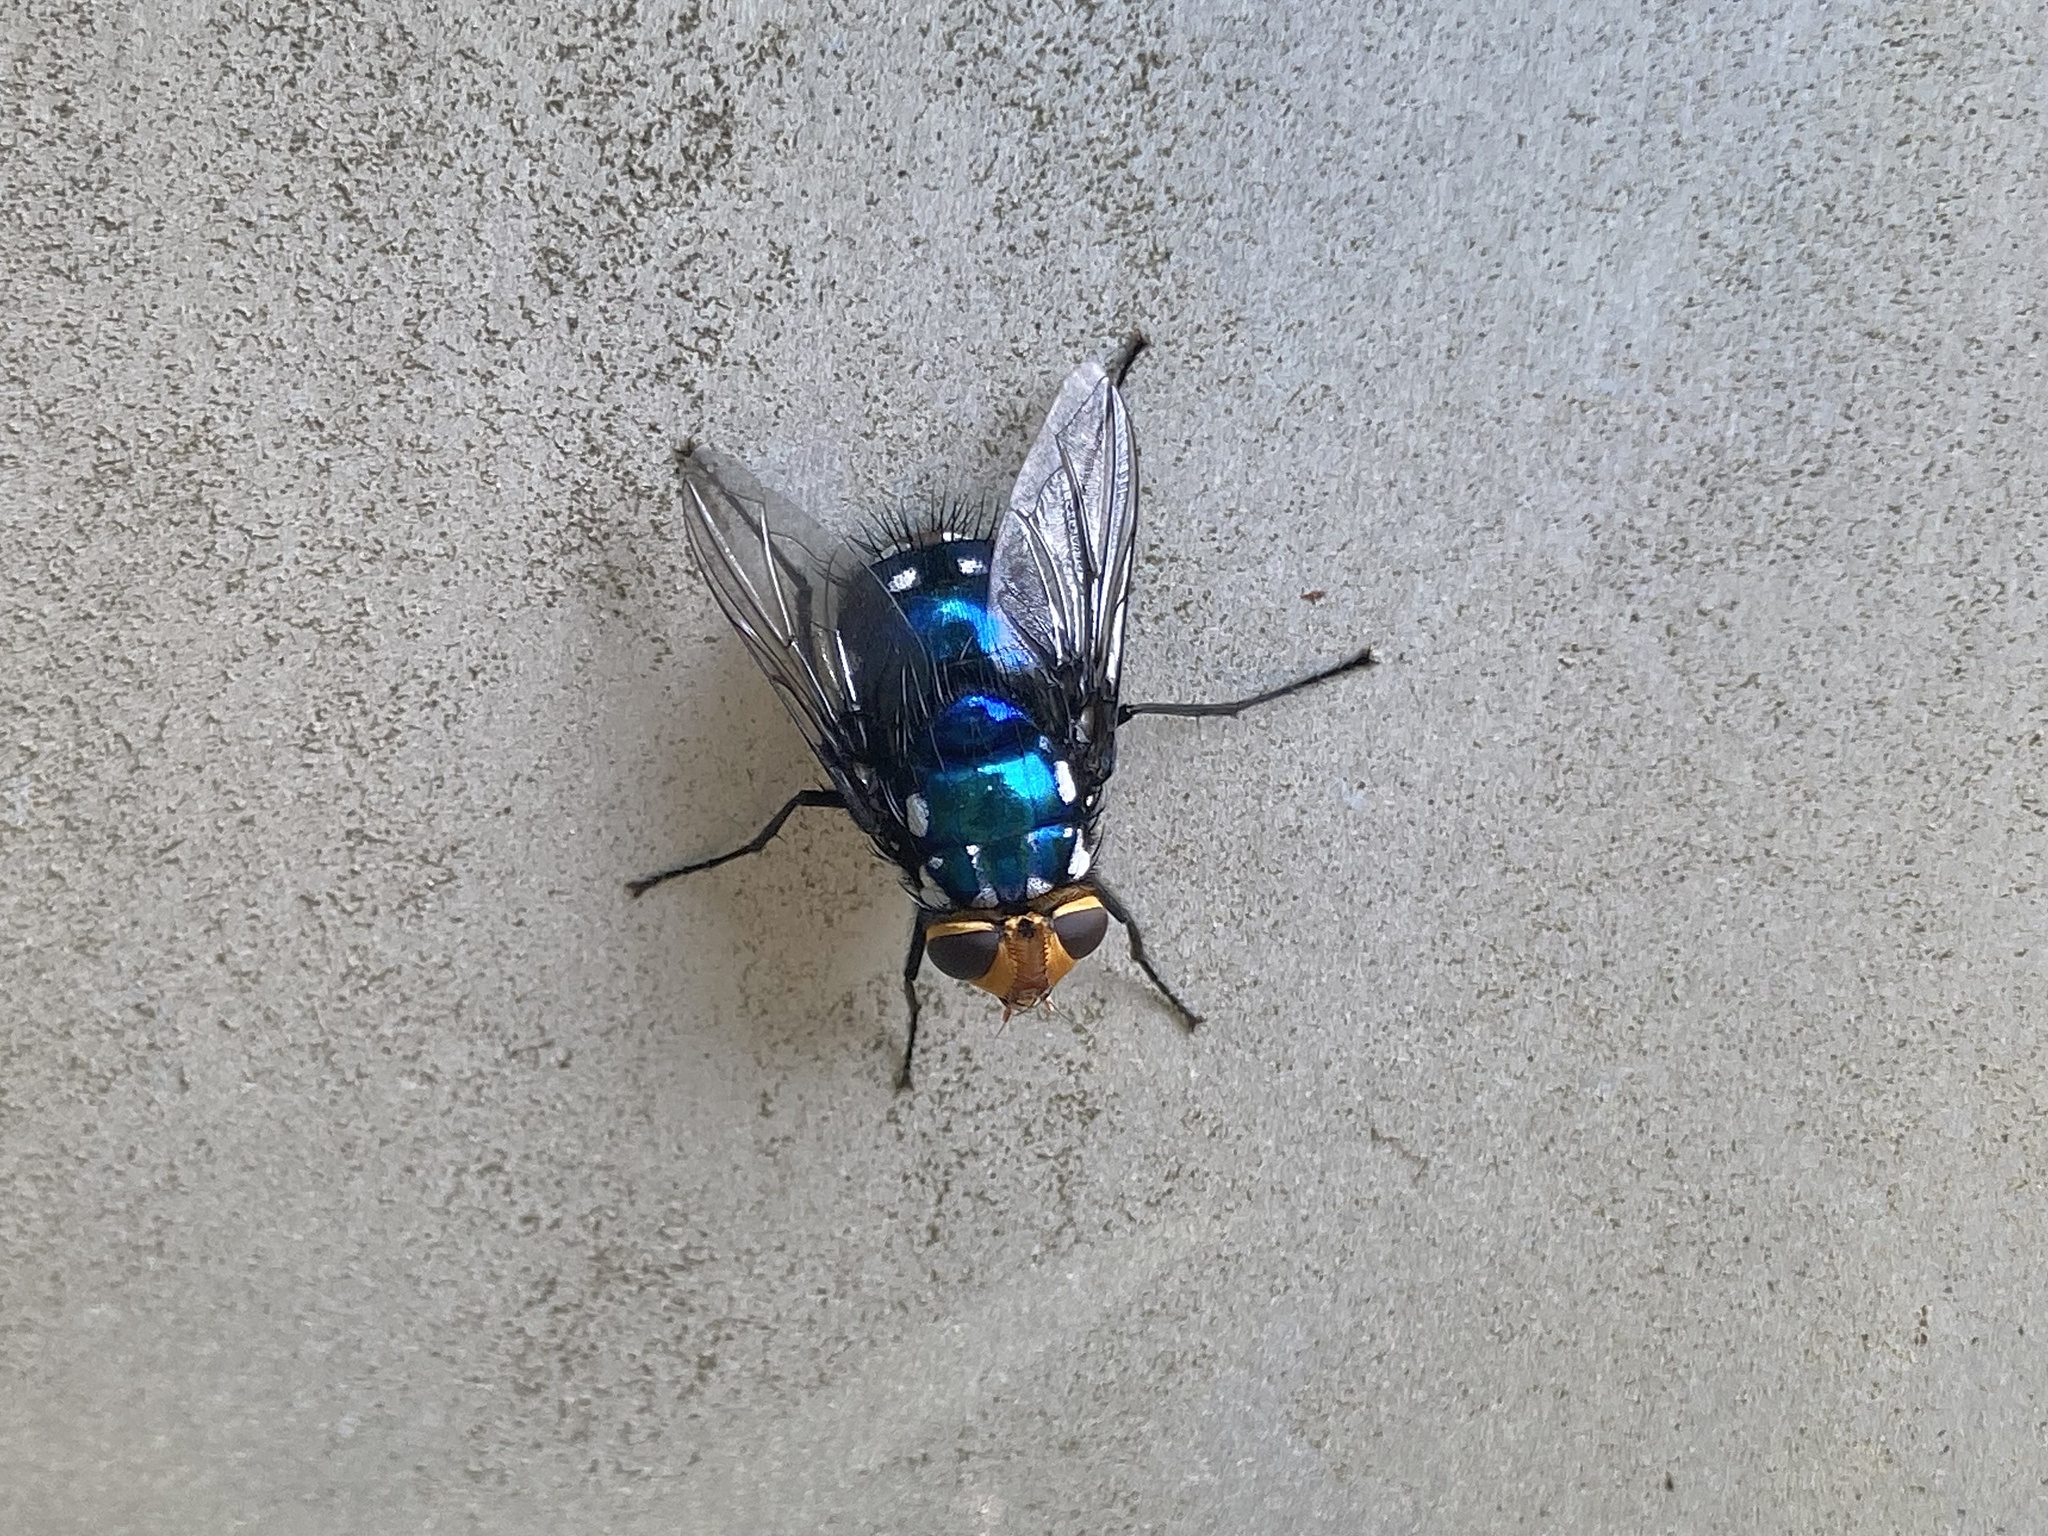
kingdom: Animalia
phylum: Arthropoda
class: Insecta
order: Diptera
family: Tachinidae
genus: Rutilia
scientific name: Rutilia argentifera
